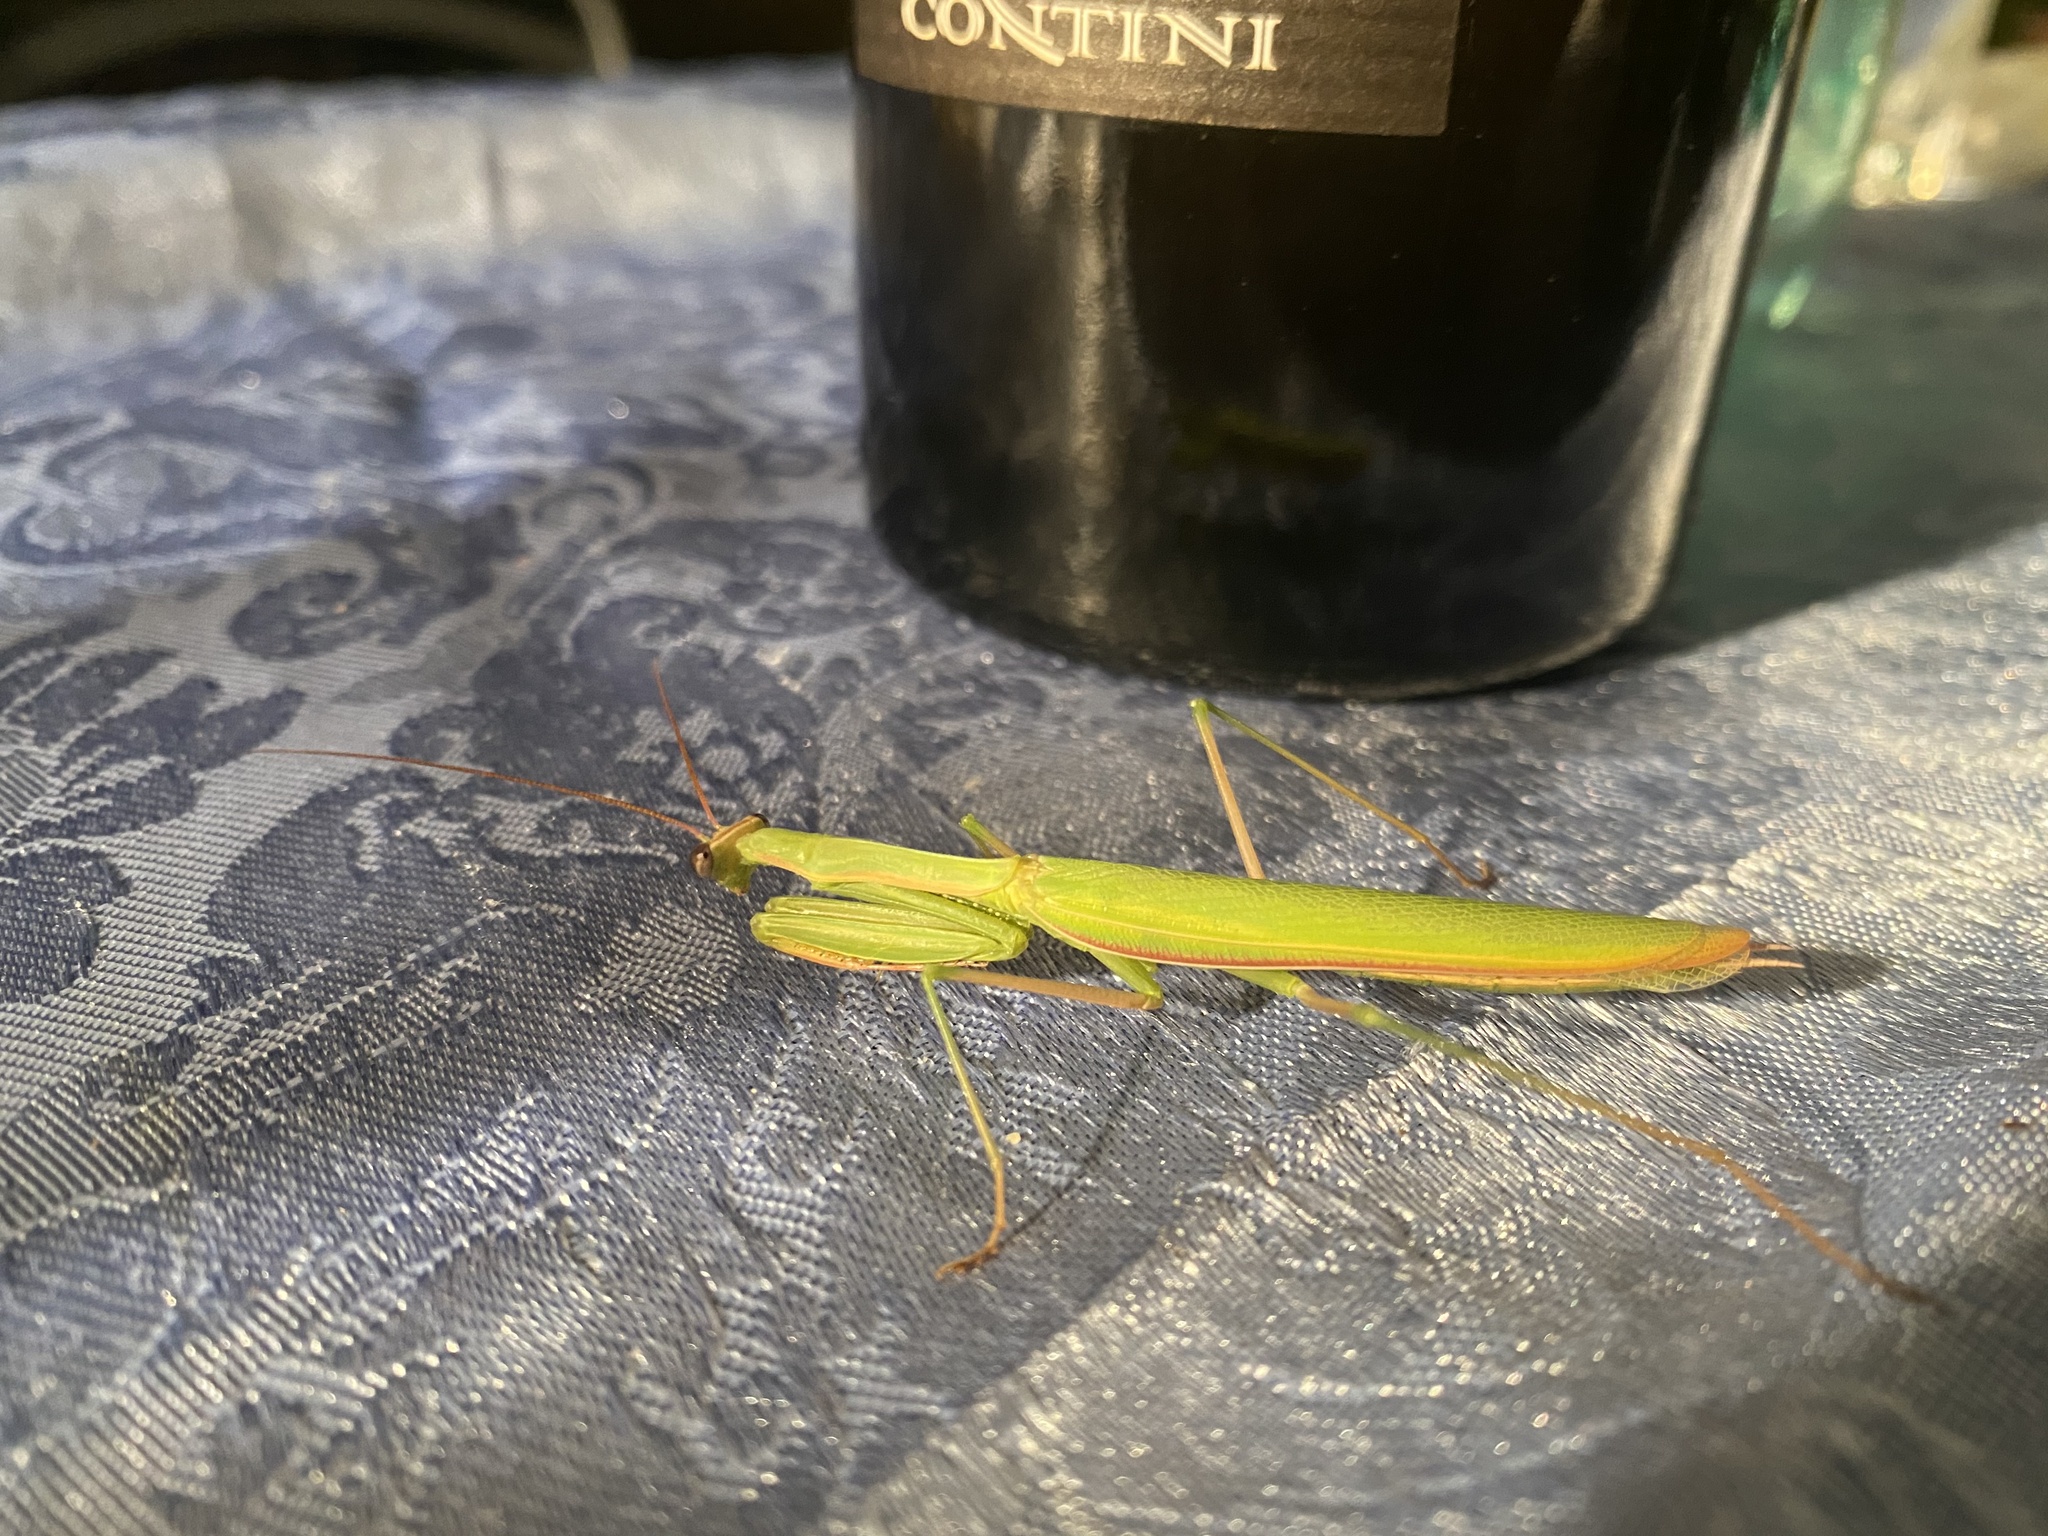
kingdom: Animalia
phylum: Arthropoda
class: Insecta
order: Mantodea
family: Mantidae
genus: Mantis
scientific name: Mantis religiosa
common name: Praying mantis
